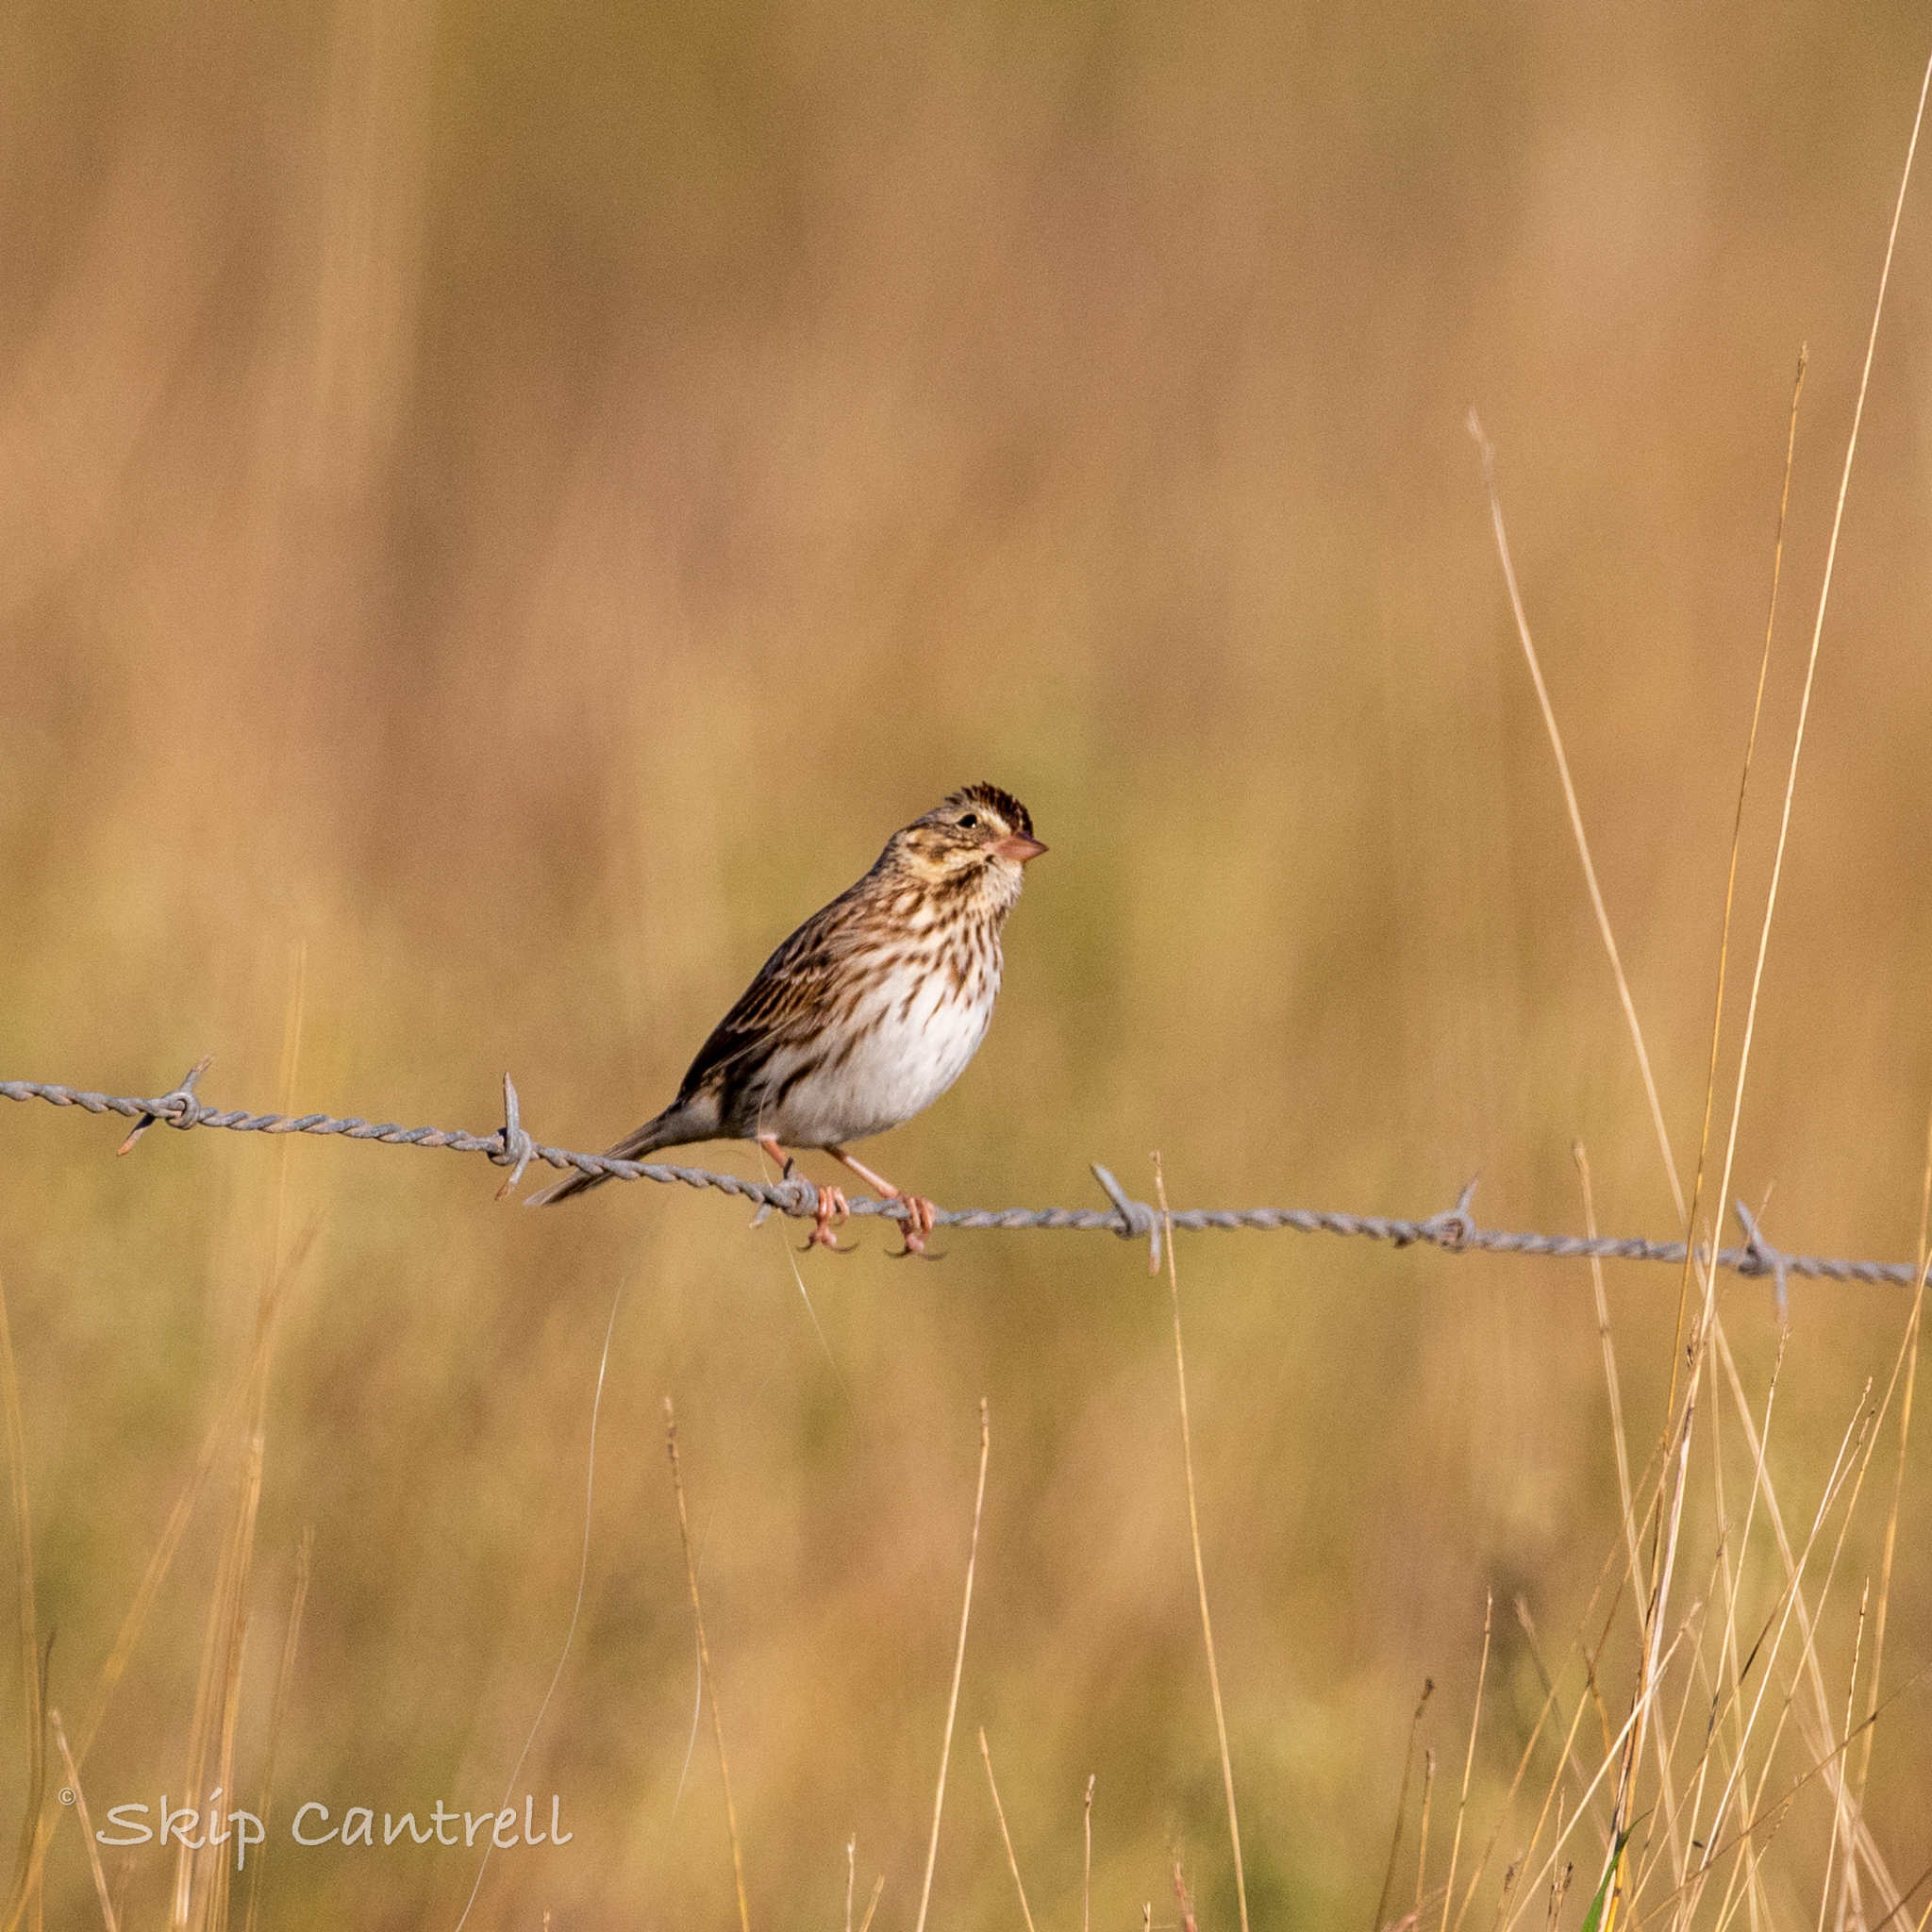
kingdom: Animalia
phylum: Chordata
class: Aves
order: Passeriformes
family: Passerellidae
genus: Passerculus
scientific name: Passerculus sandwichensis
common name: Savannah sparrow
